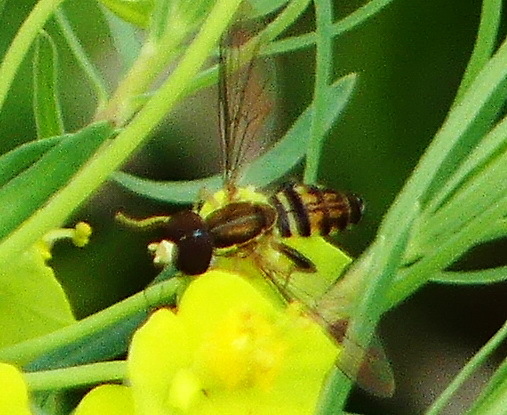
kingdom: Animalia
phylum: Arthropoda
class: Insecta
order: Diptera
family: Syrphidae
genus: Toxomerus
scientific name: Toxomerus geminatus
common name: Eastern calligrapher
